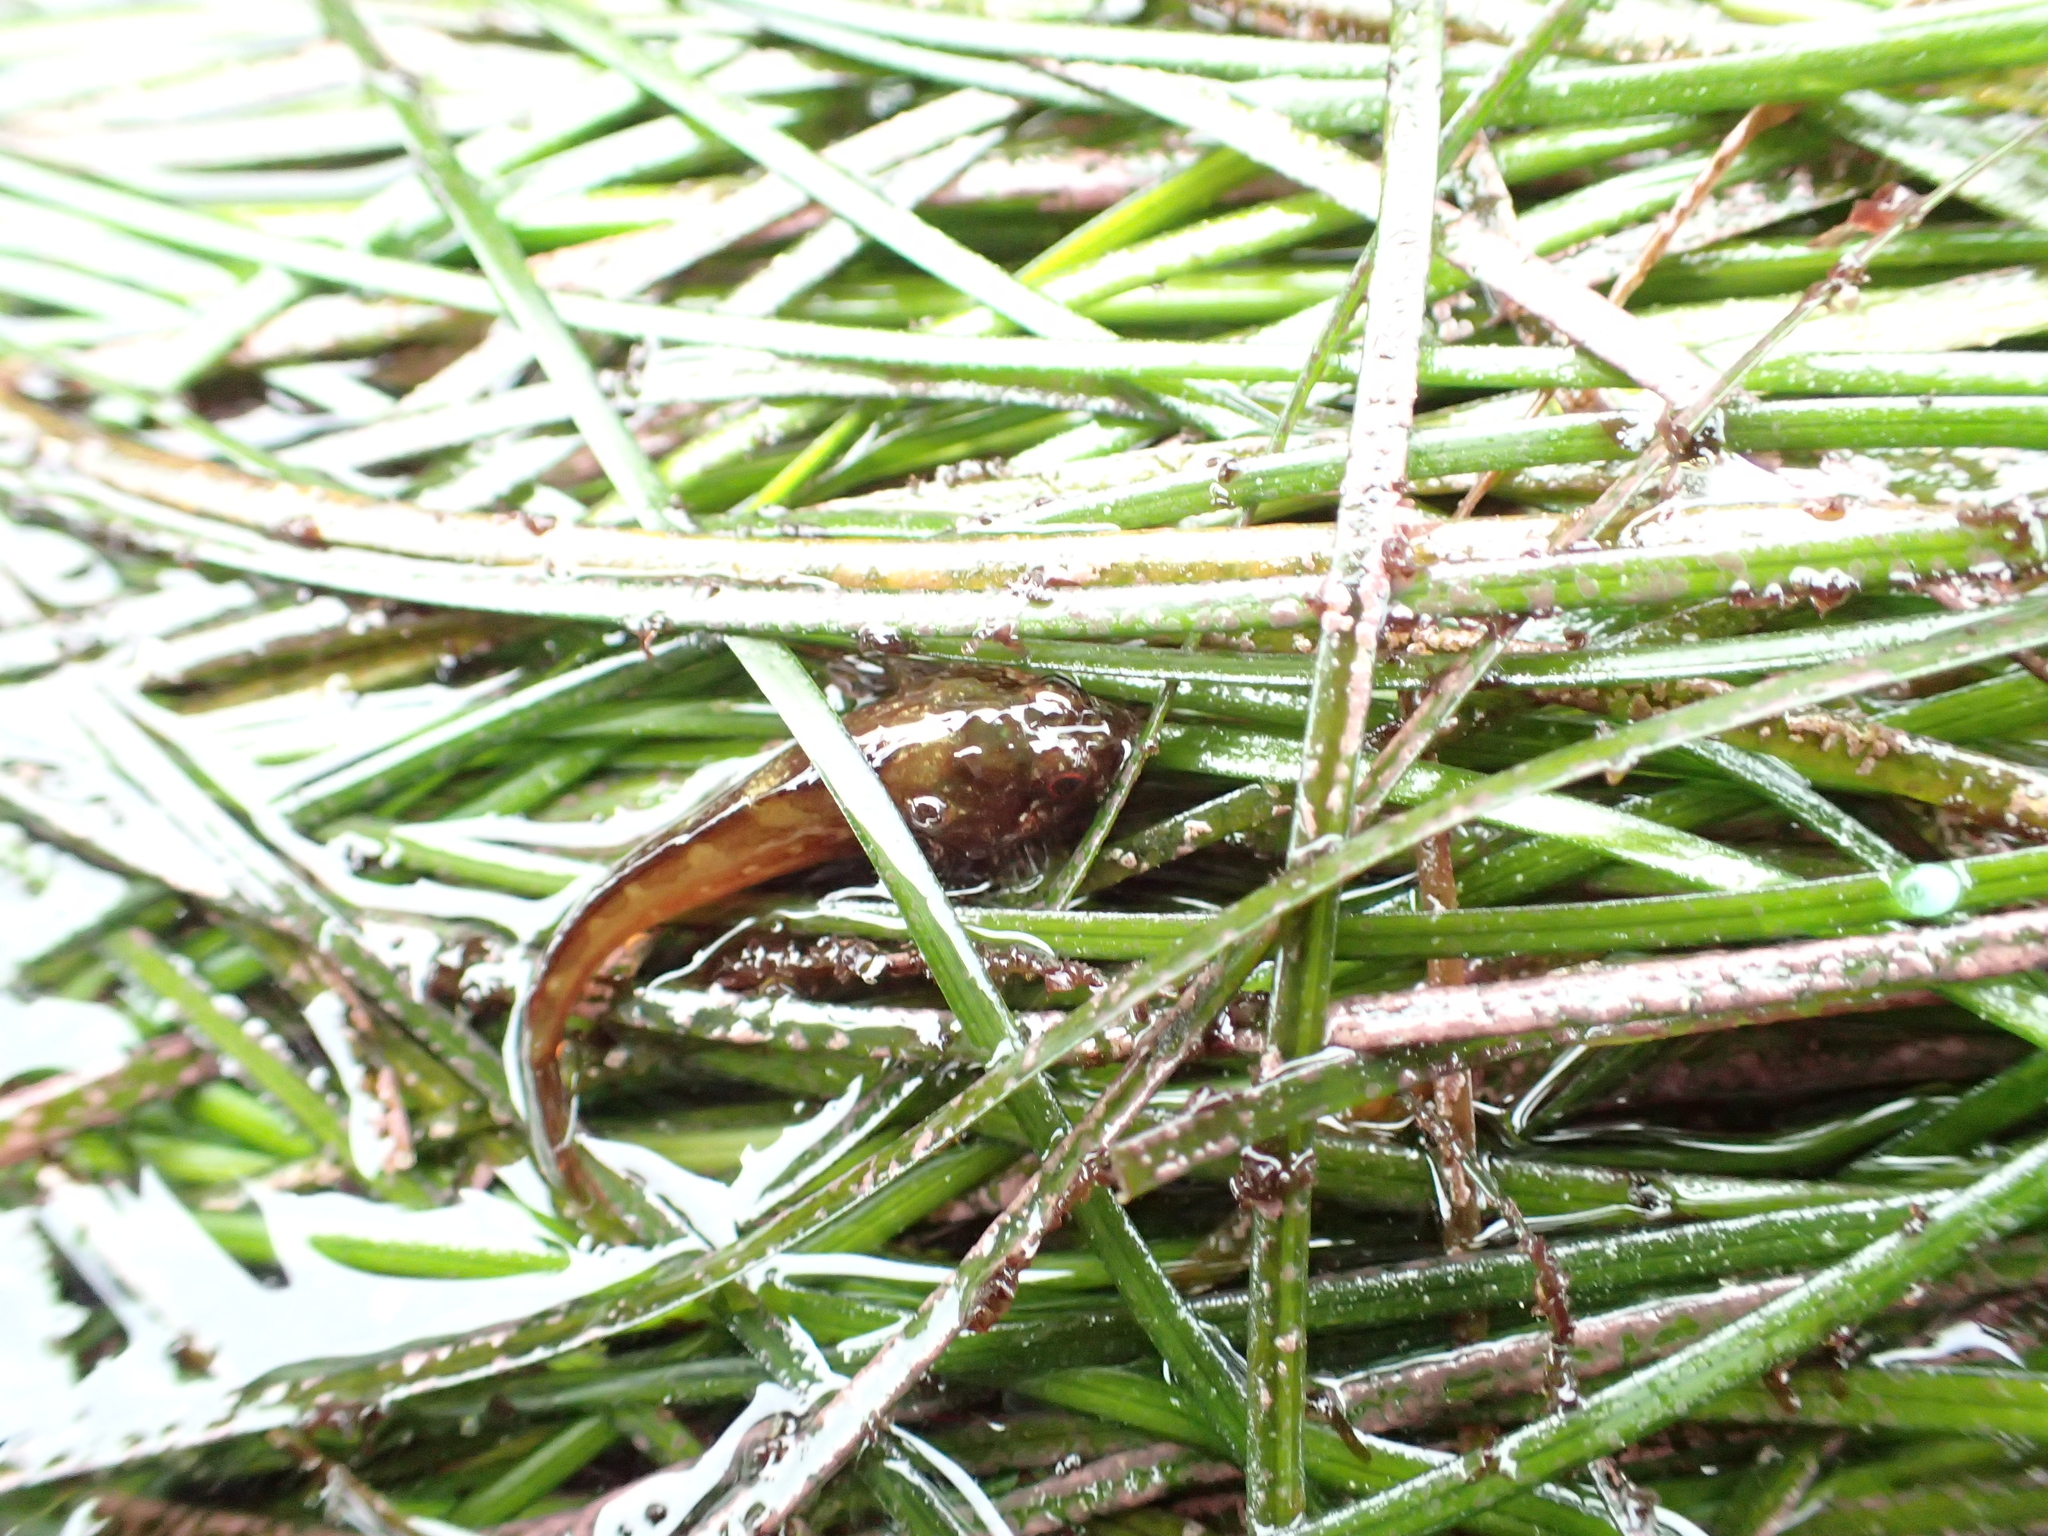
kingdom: Animalia
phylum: Chordata
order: Scorpaeniformes
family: Cottidae
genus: Oligocottus
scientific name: Oligocottus snyderi
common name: Fluffy sculpin
